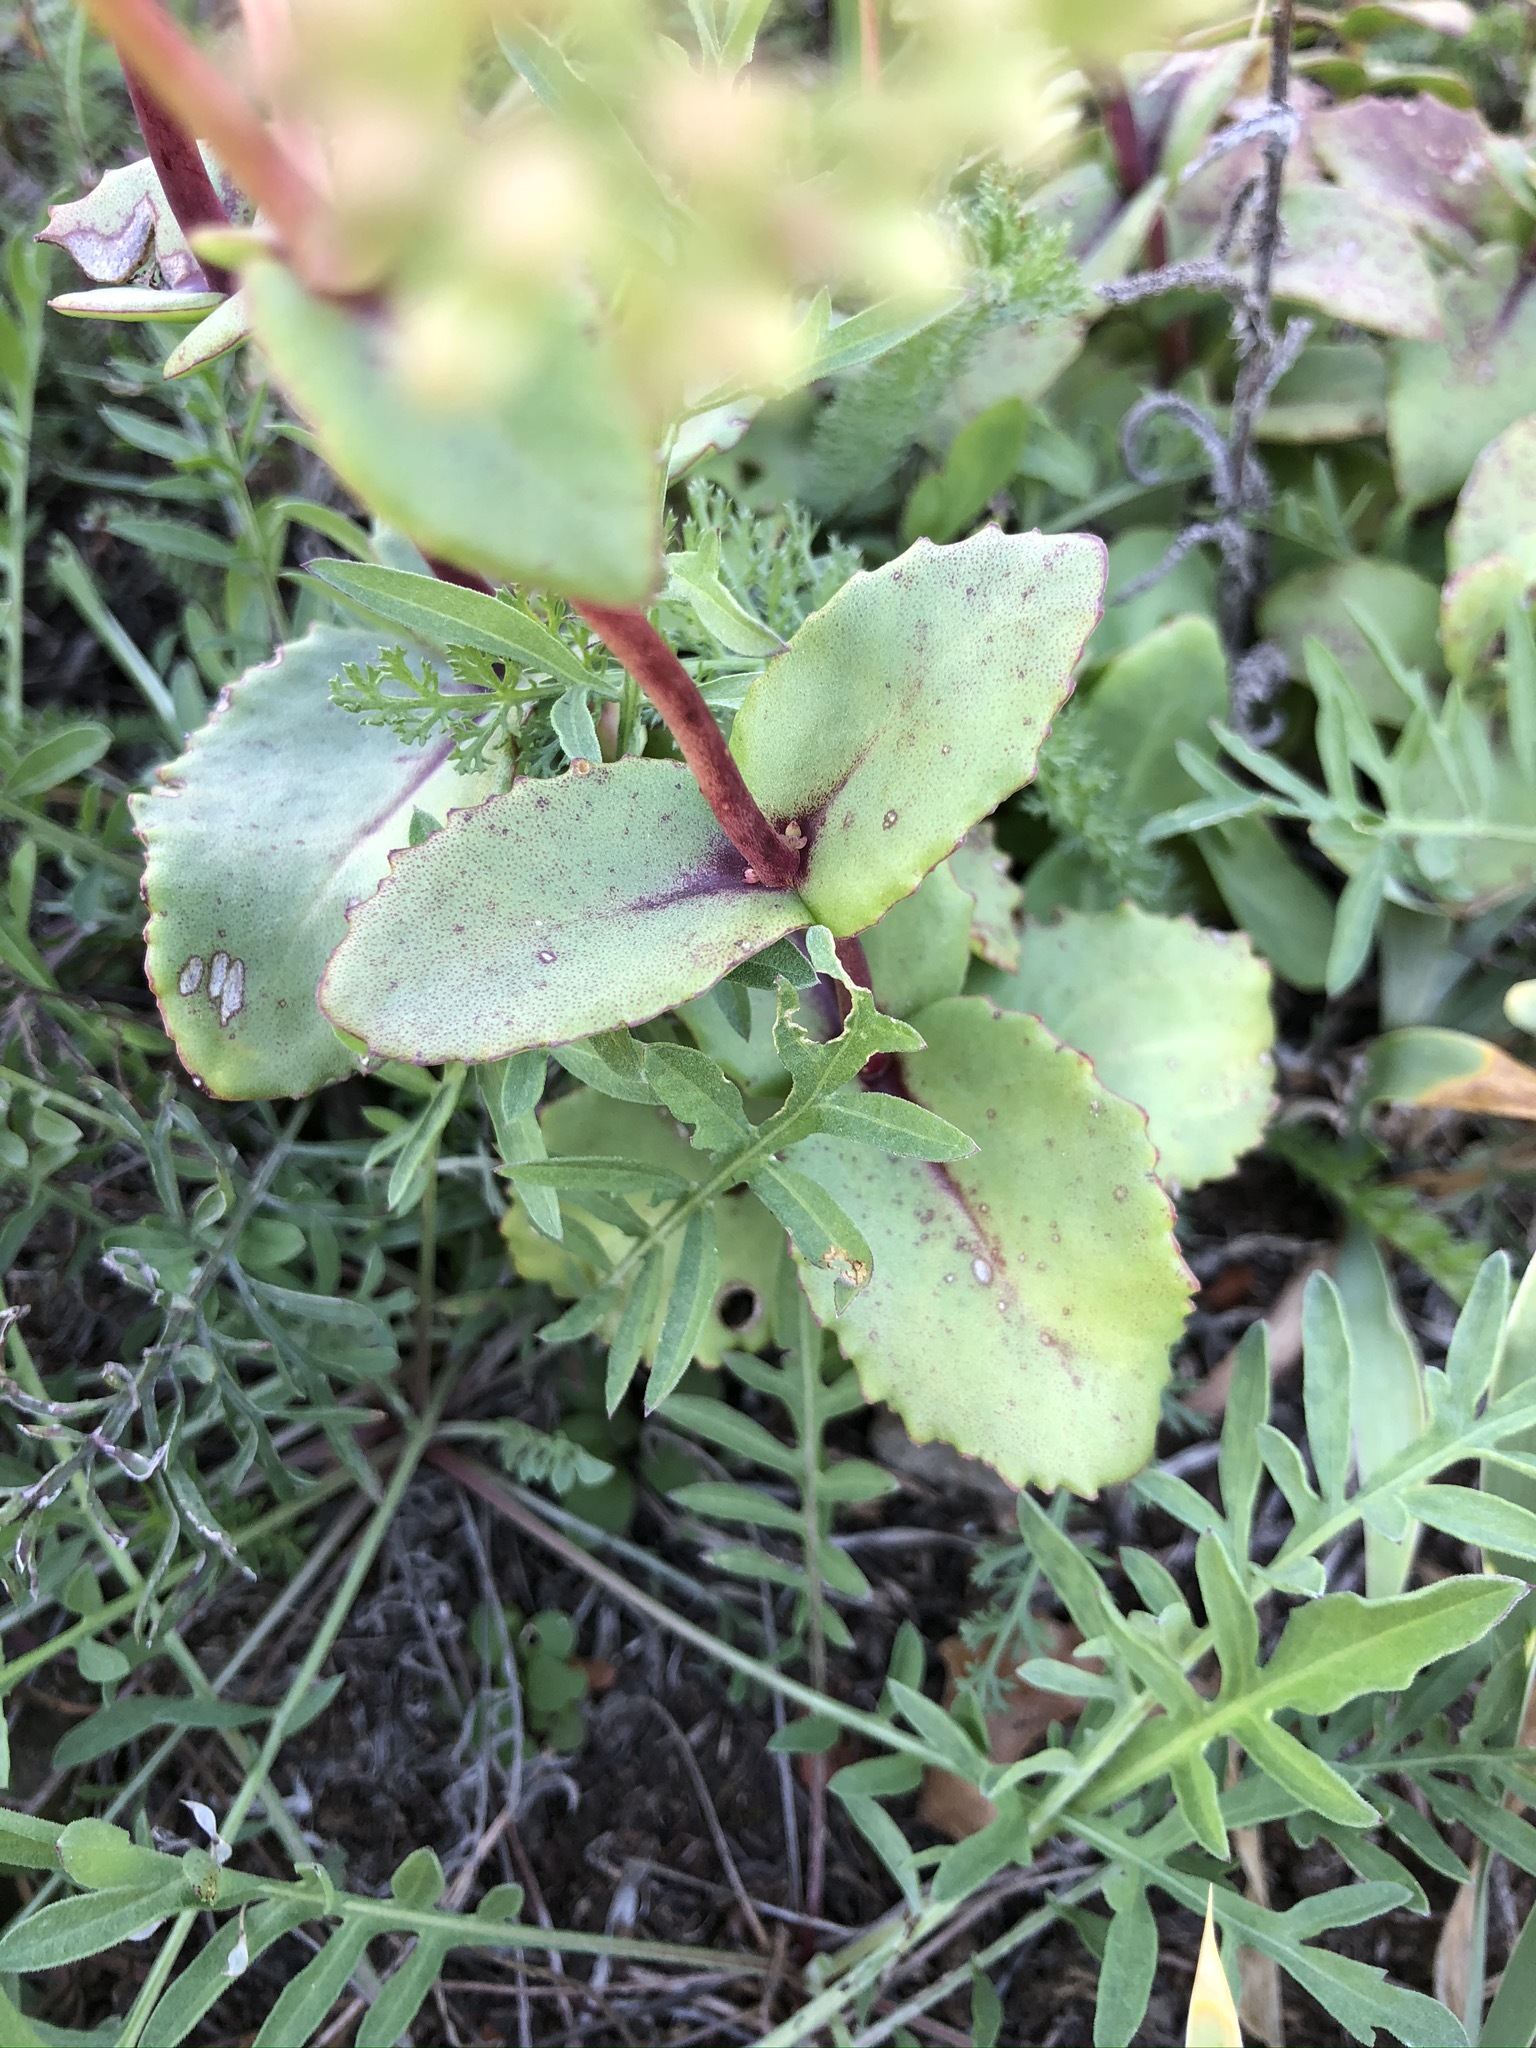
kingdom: Plantae
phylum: Tracheophyta
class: Magnoliopsida
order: Saxifragales
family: Crassulaceae
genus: Hylotelephium
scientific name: Hylotelephium maximum
